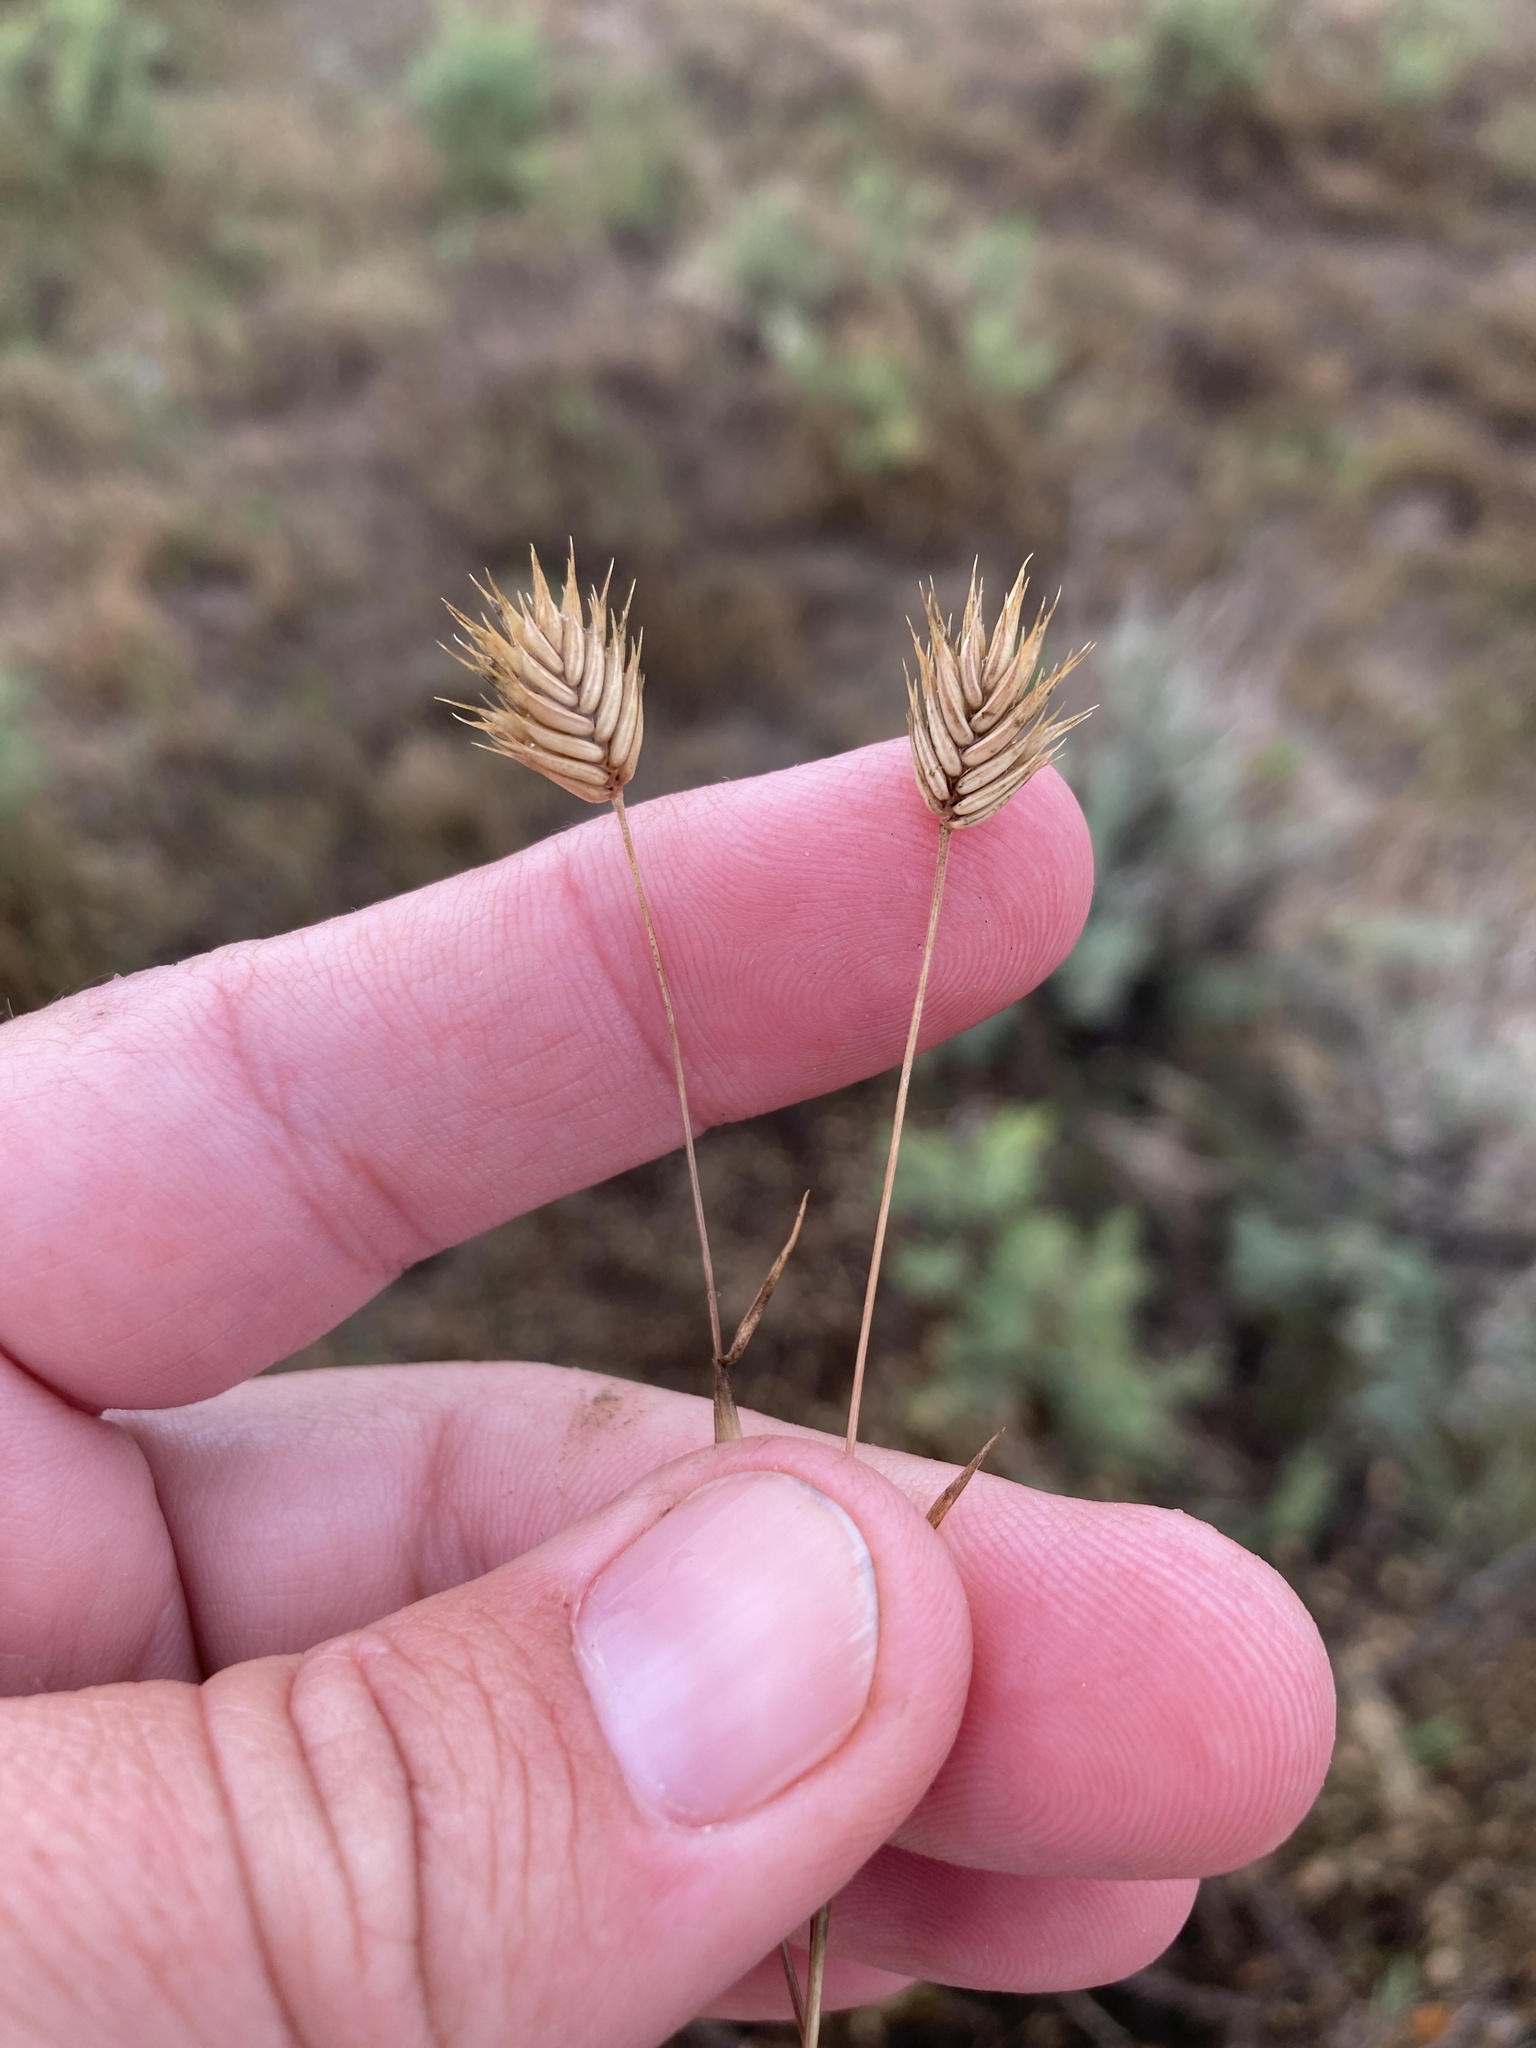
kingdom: Plantae
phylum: Tracheophyta
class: Liliopsida
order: Poales
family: Poaceae
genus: Eremopyrum
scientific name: Eremopyrum triticeum
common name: Annual wheatgrass
